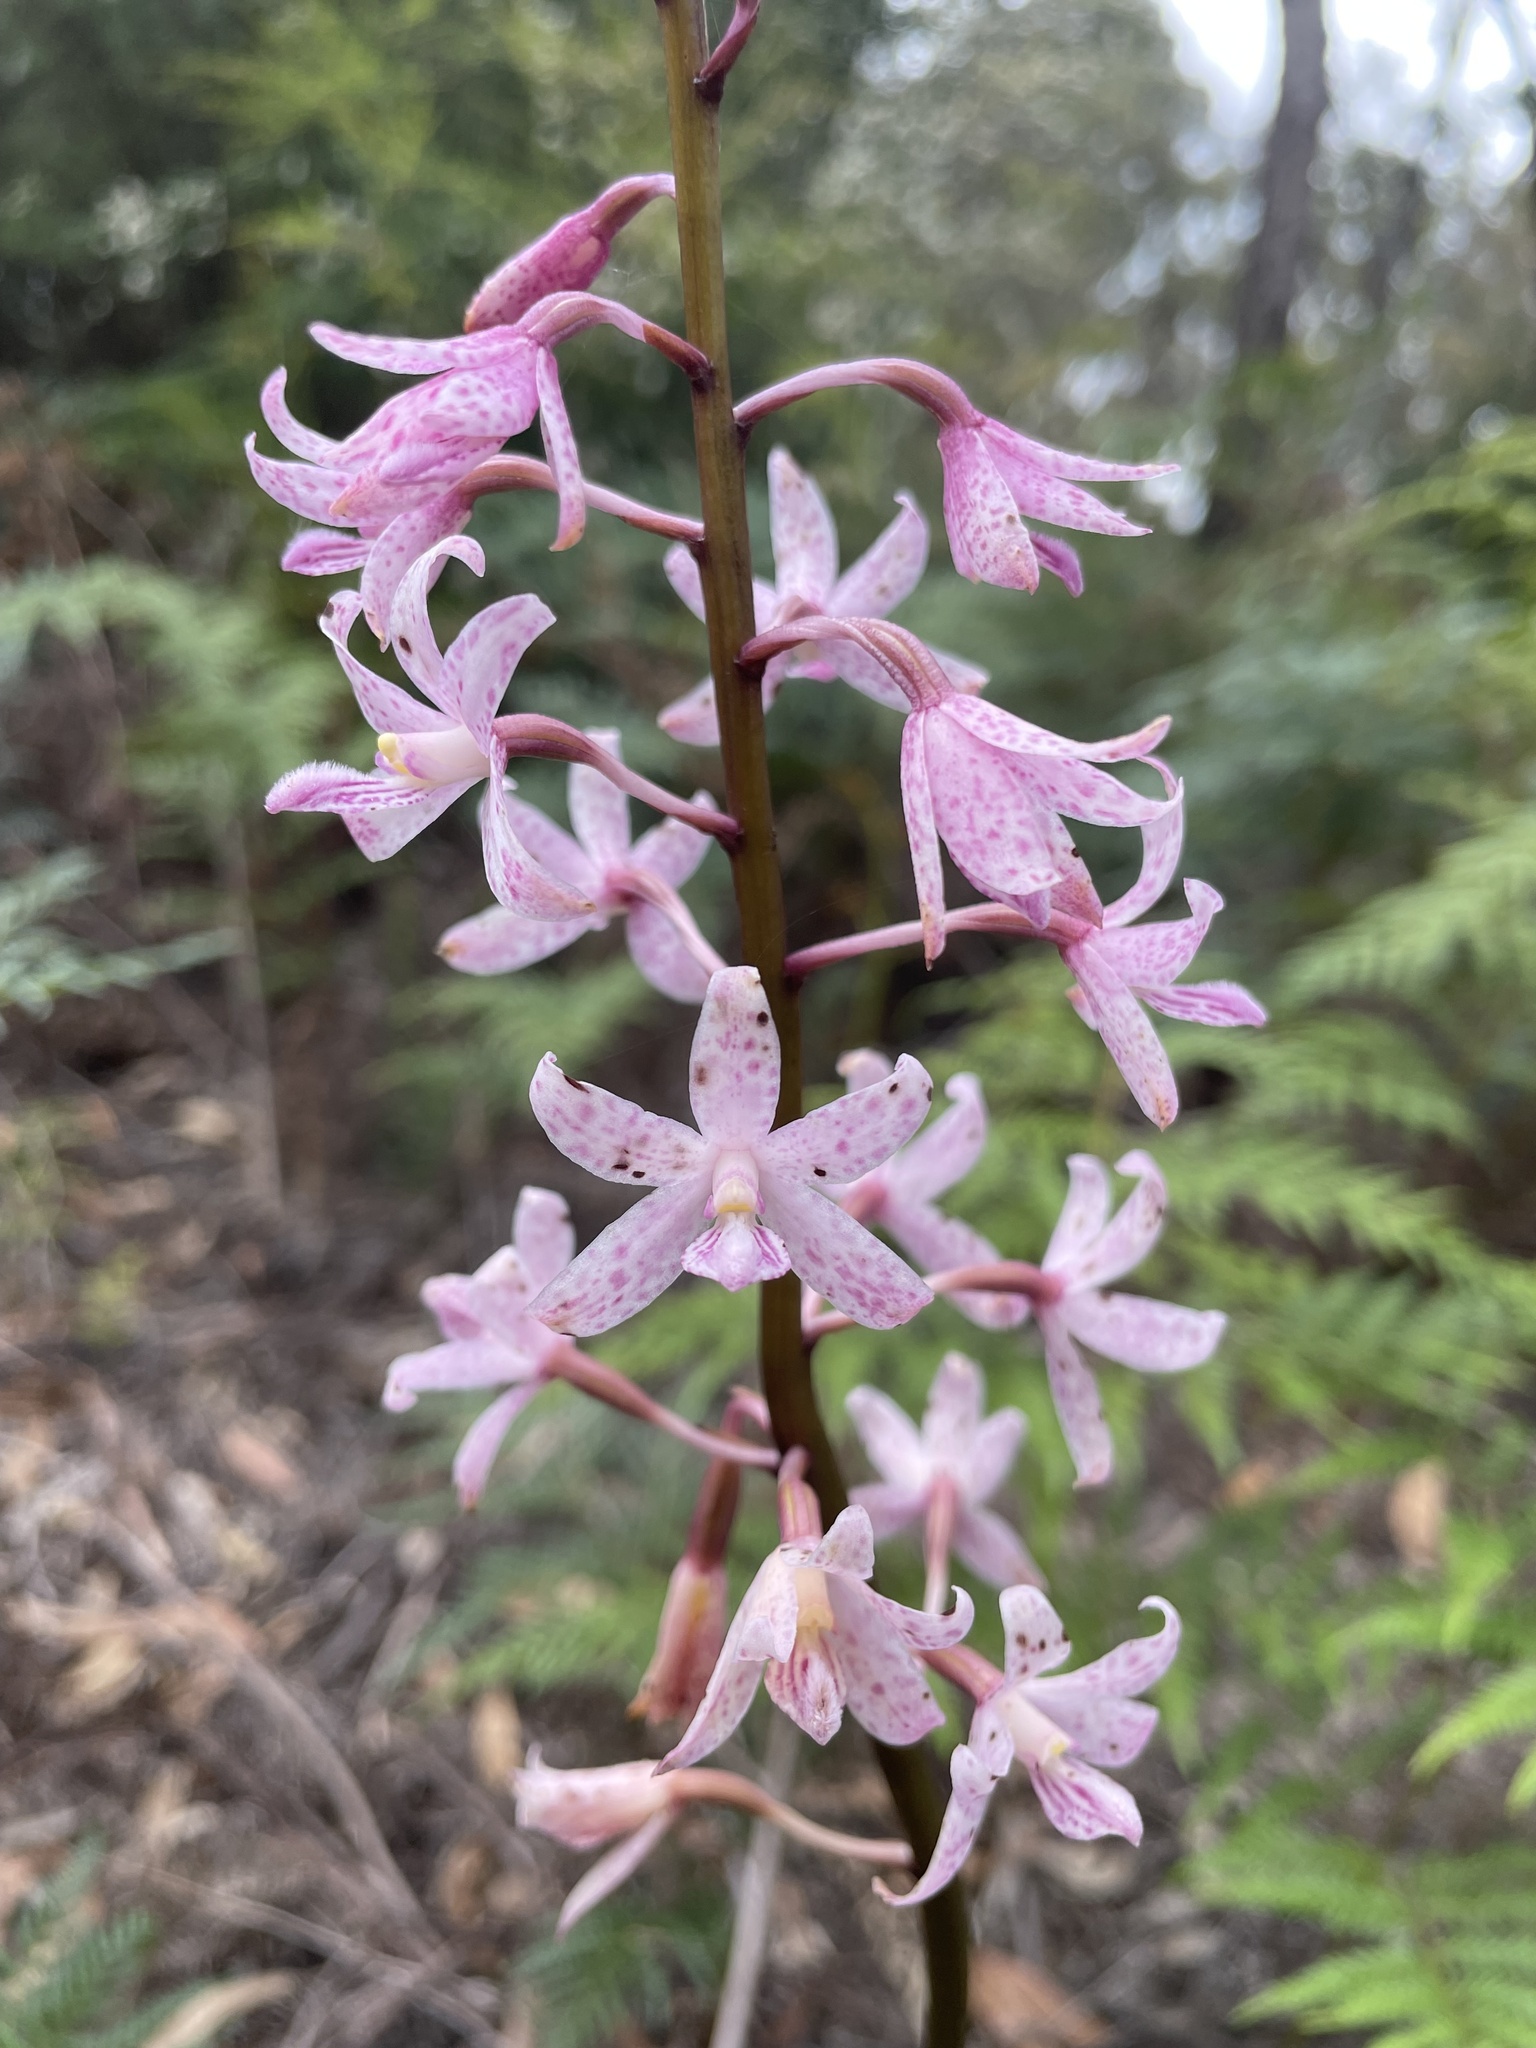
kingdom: Plantae
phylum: Tracheophyta
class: Liliopsida
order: Asparagales
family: Orchidaceae
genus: Dipodium
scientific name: Dipodium roseum
